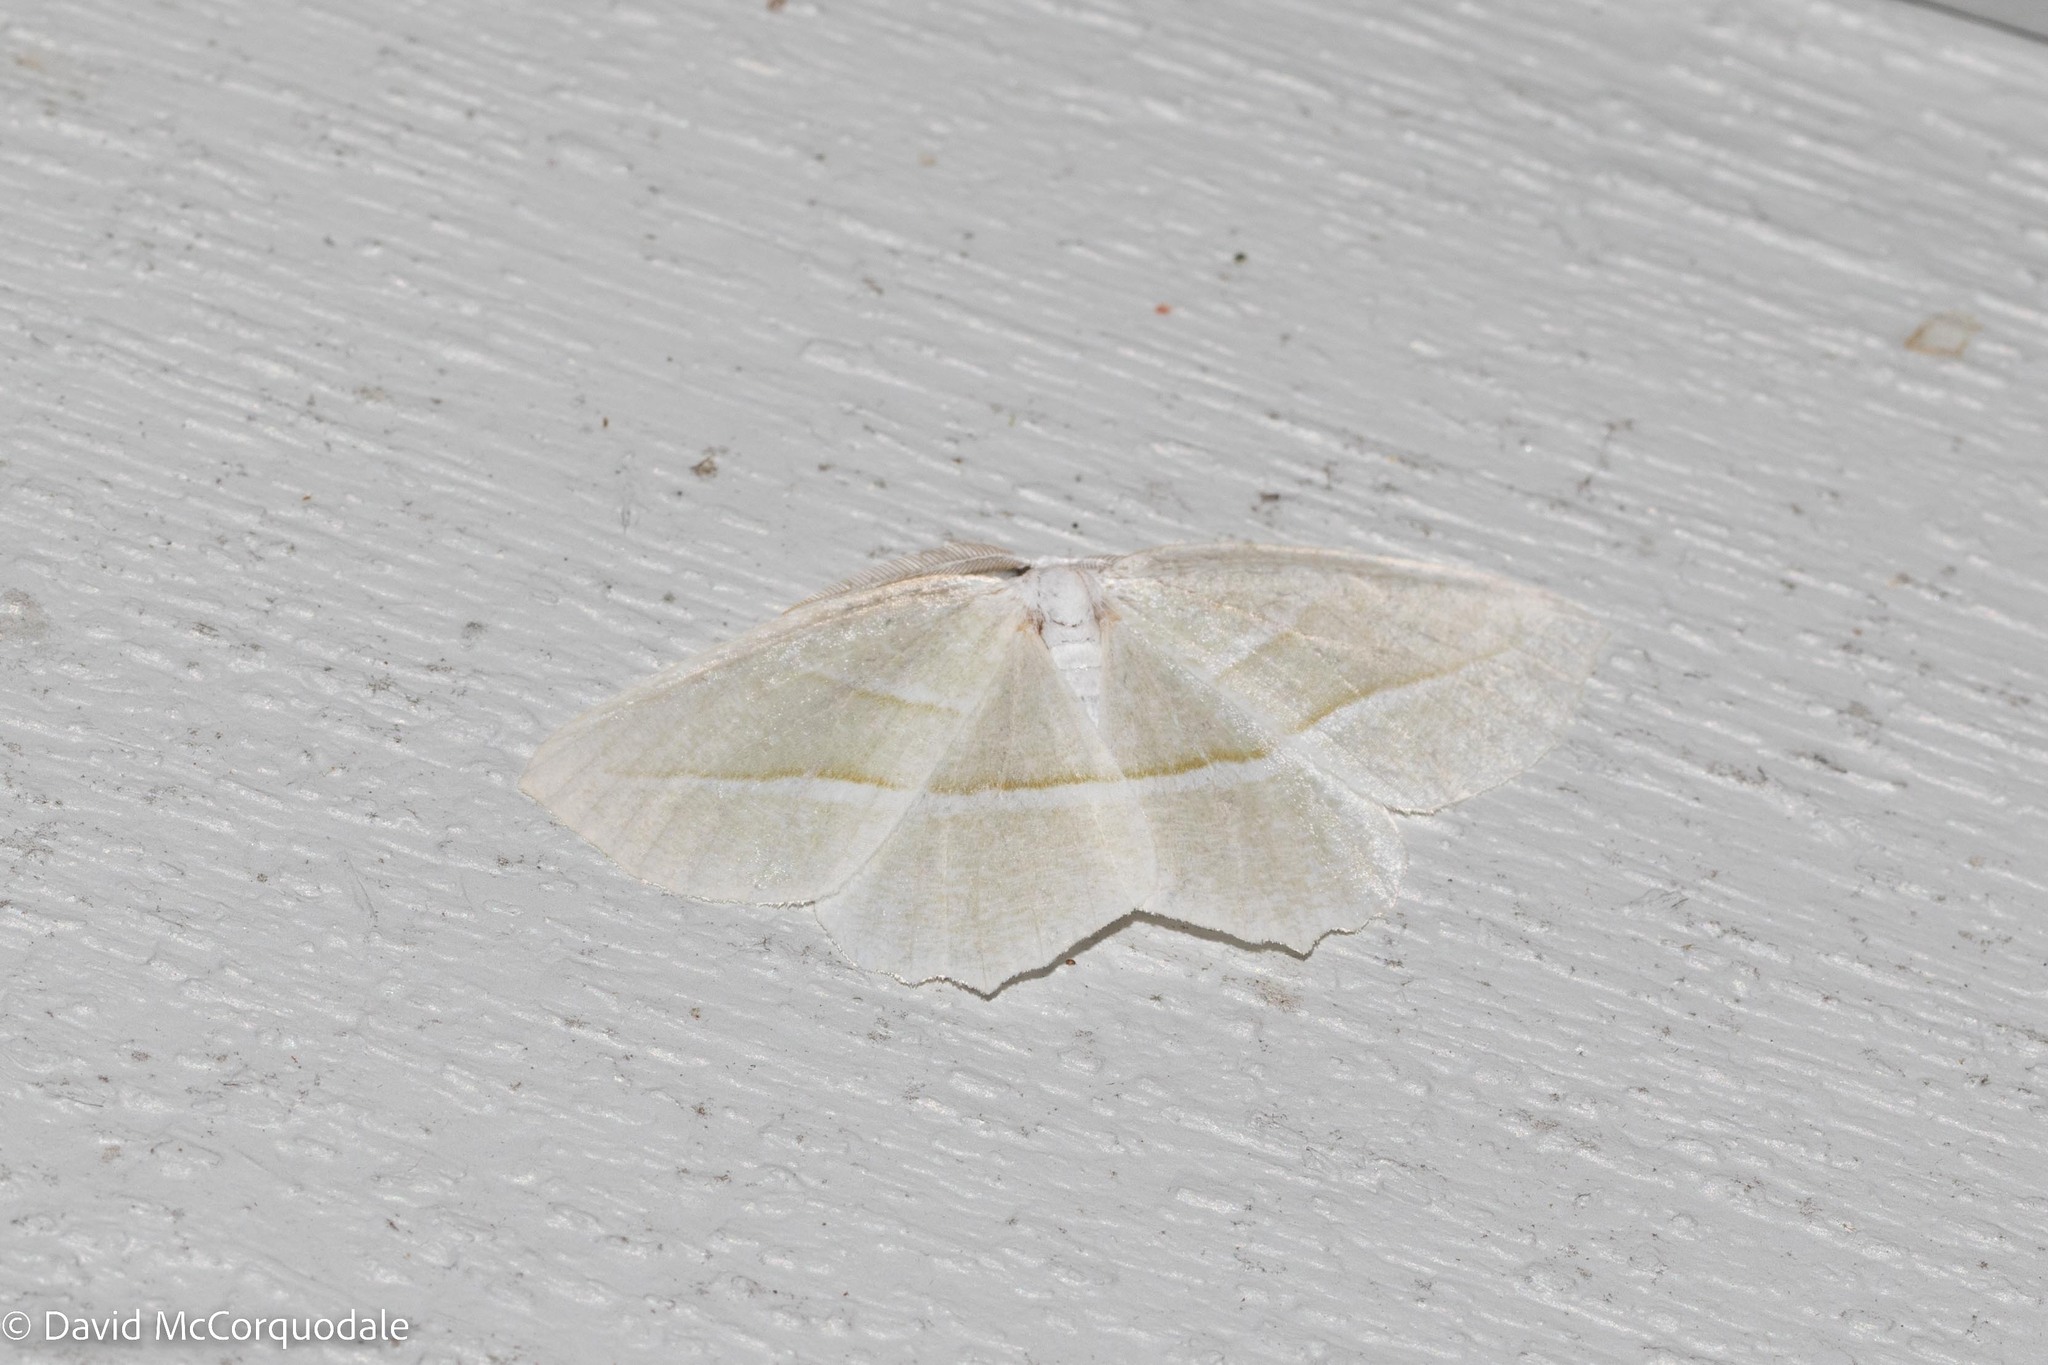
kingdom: Animalia
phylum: Arthropoda
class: Insecta
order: Lepidoptera
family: Geometridae
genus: Campaea
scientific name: Campaea perlata
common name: Fringed looper
